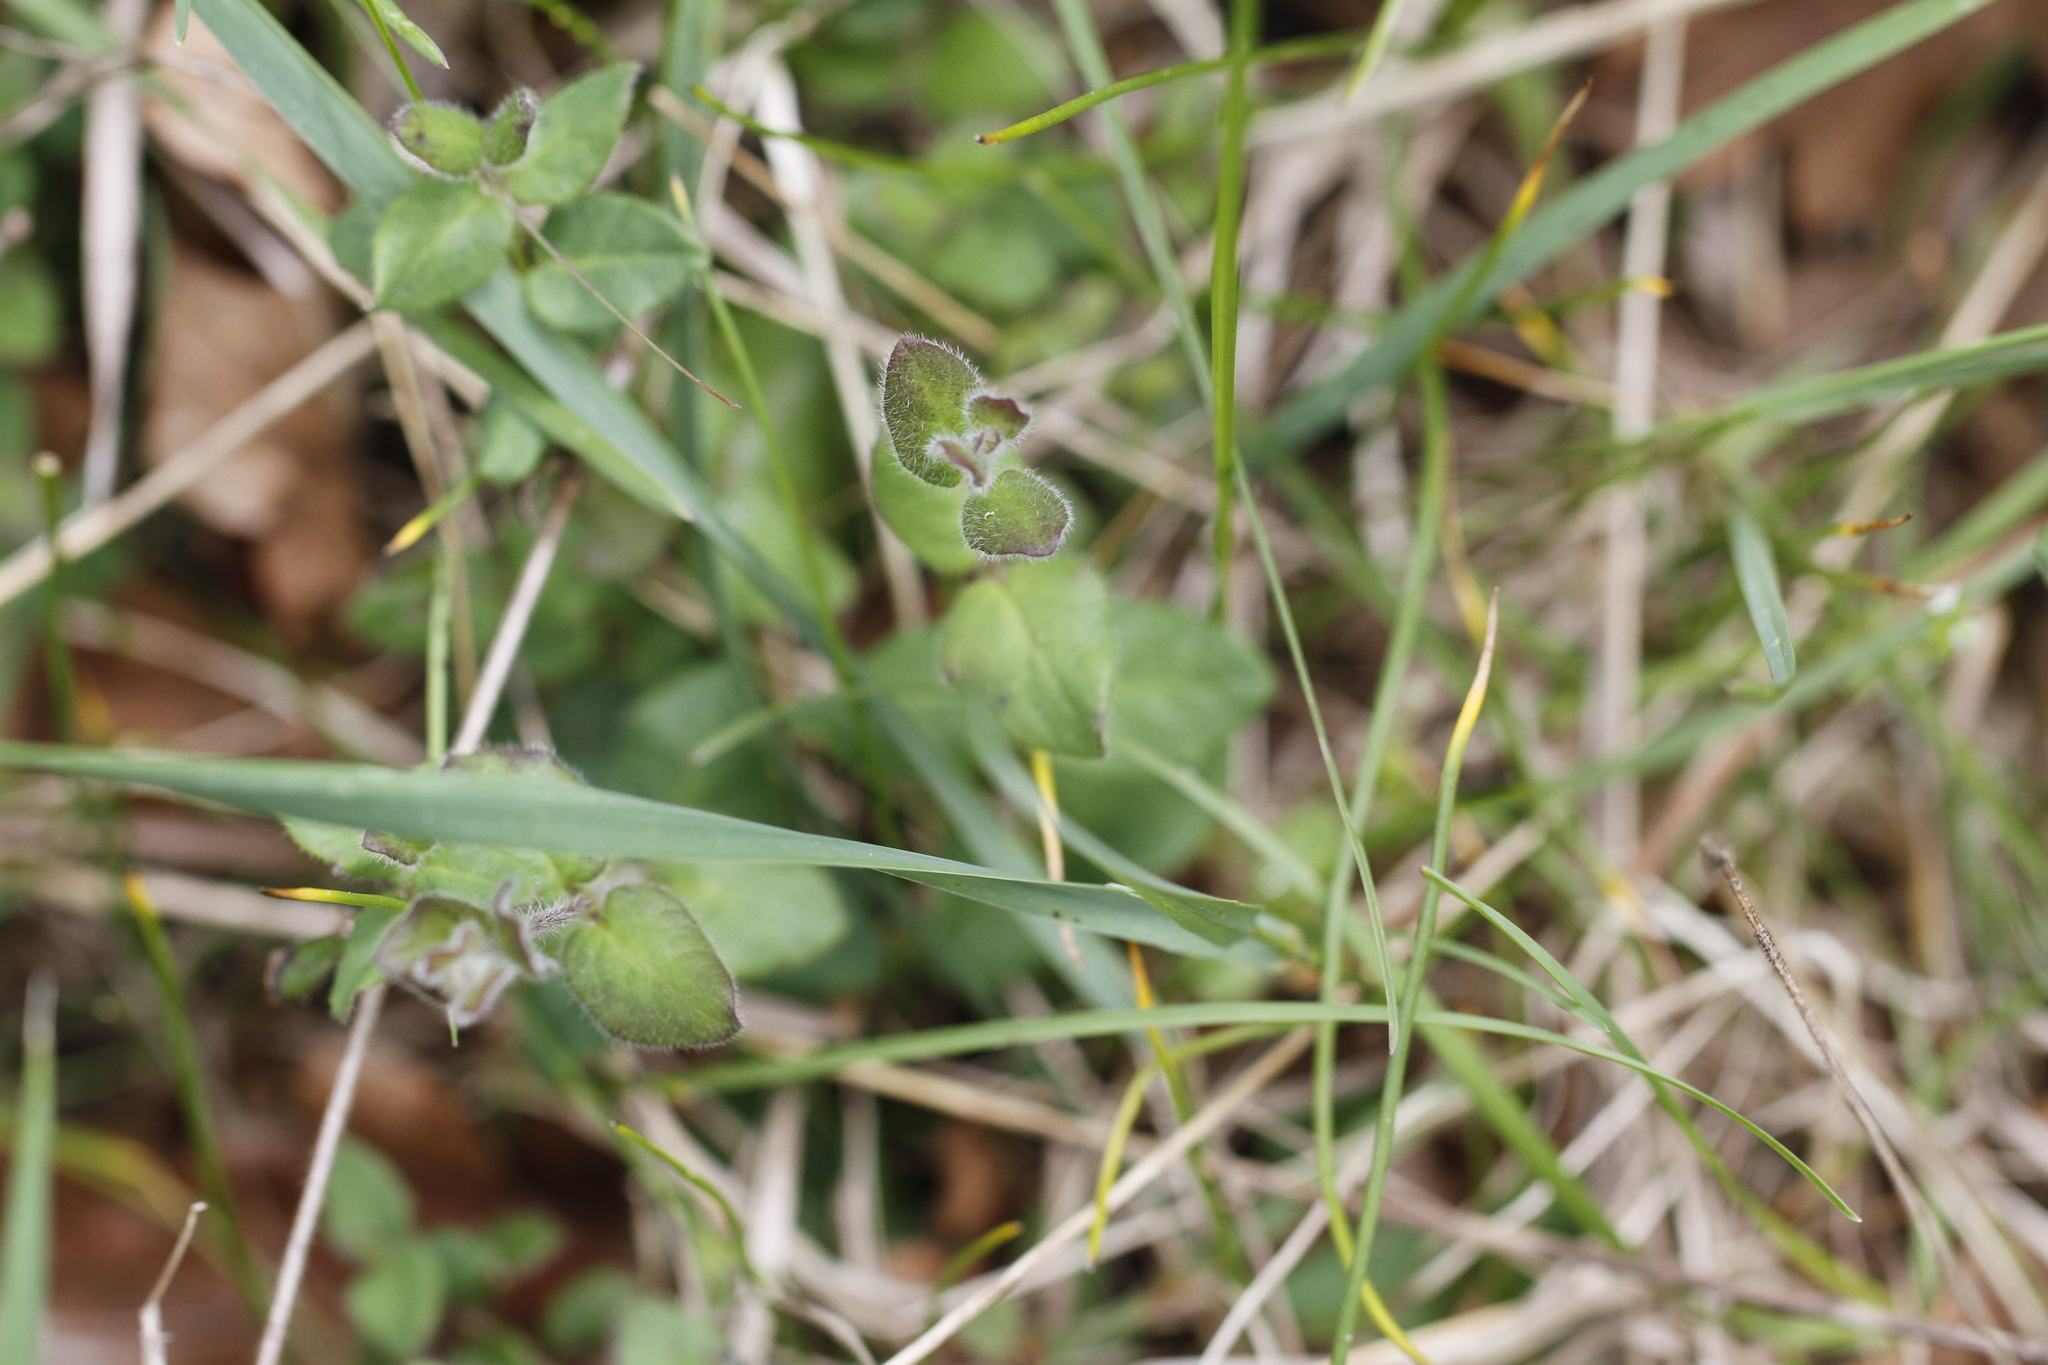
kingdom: Plantae
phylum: Tracheophyta
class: Magnoliopsida
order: Dipsacales
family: Caprifoliaceae
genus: Lonicera
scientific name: Lonicera hispidula
